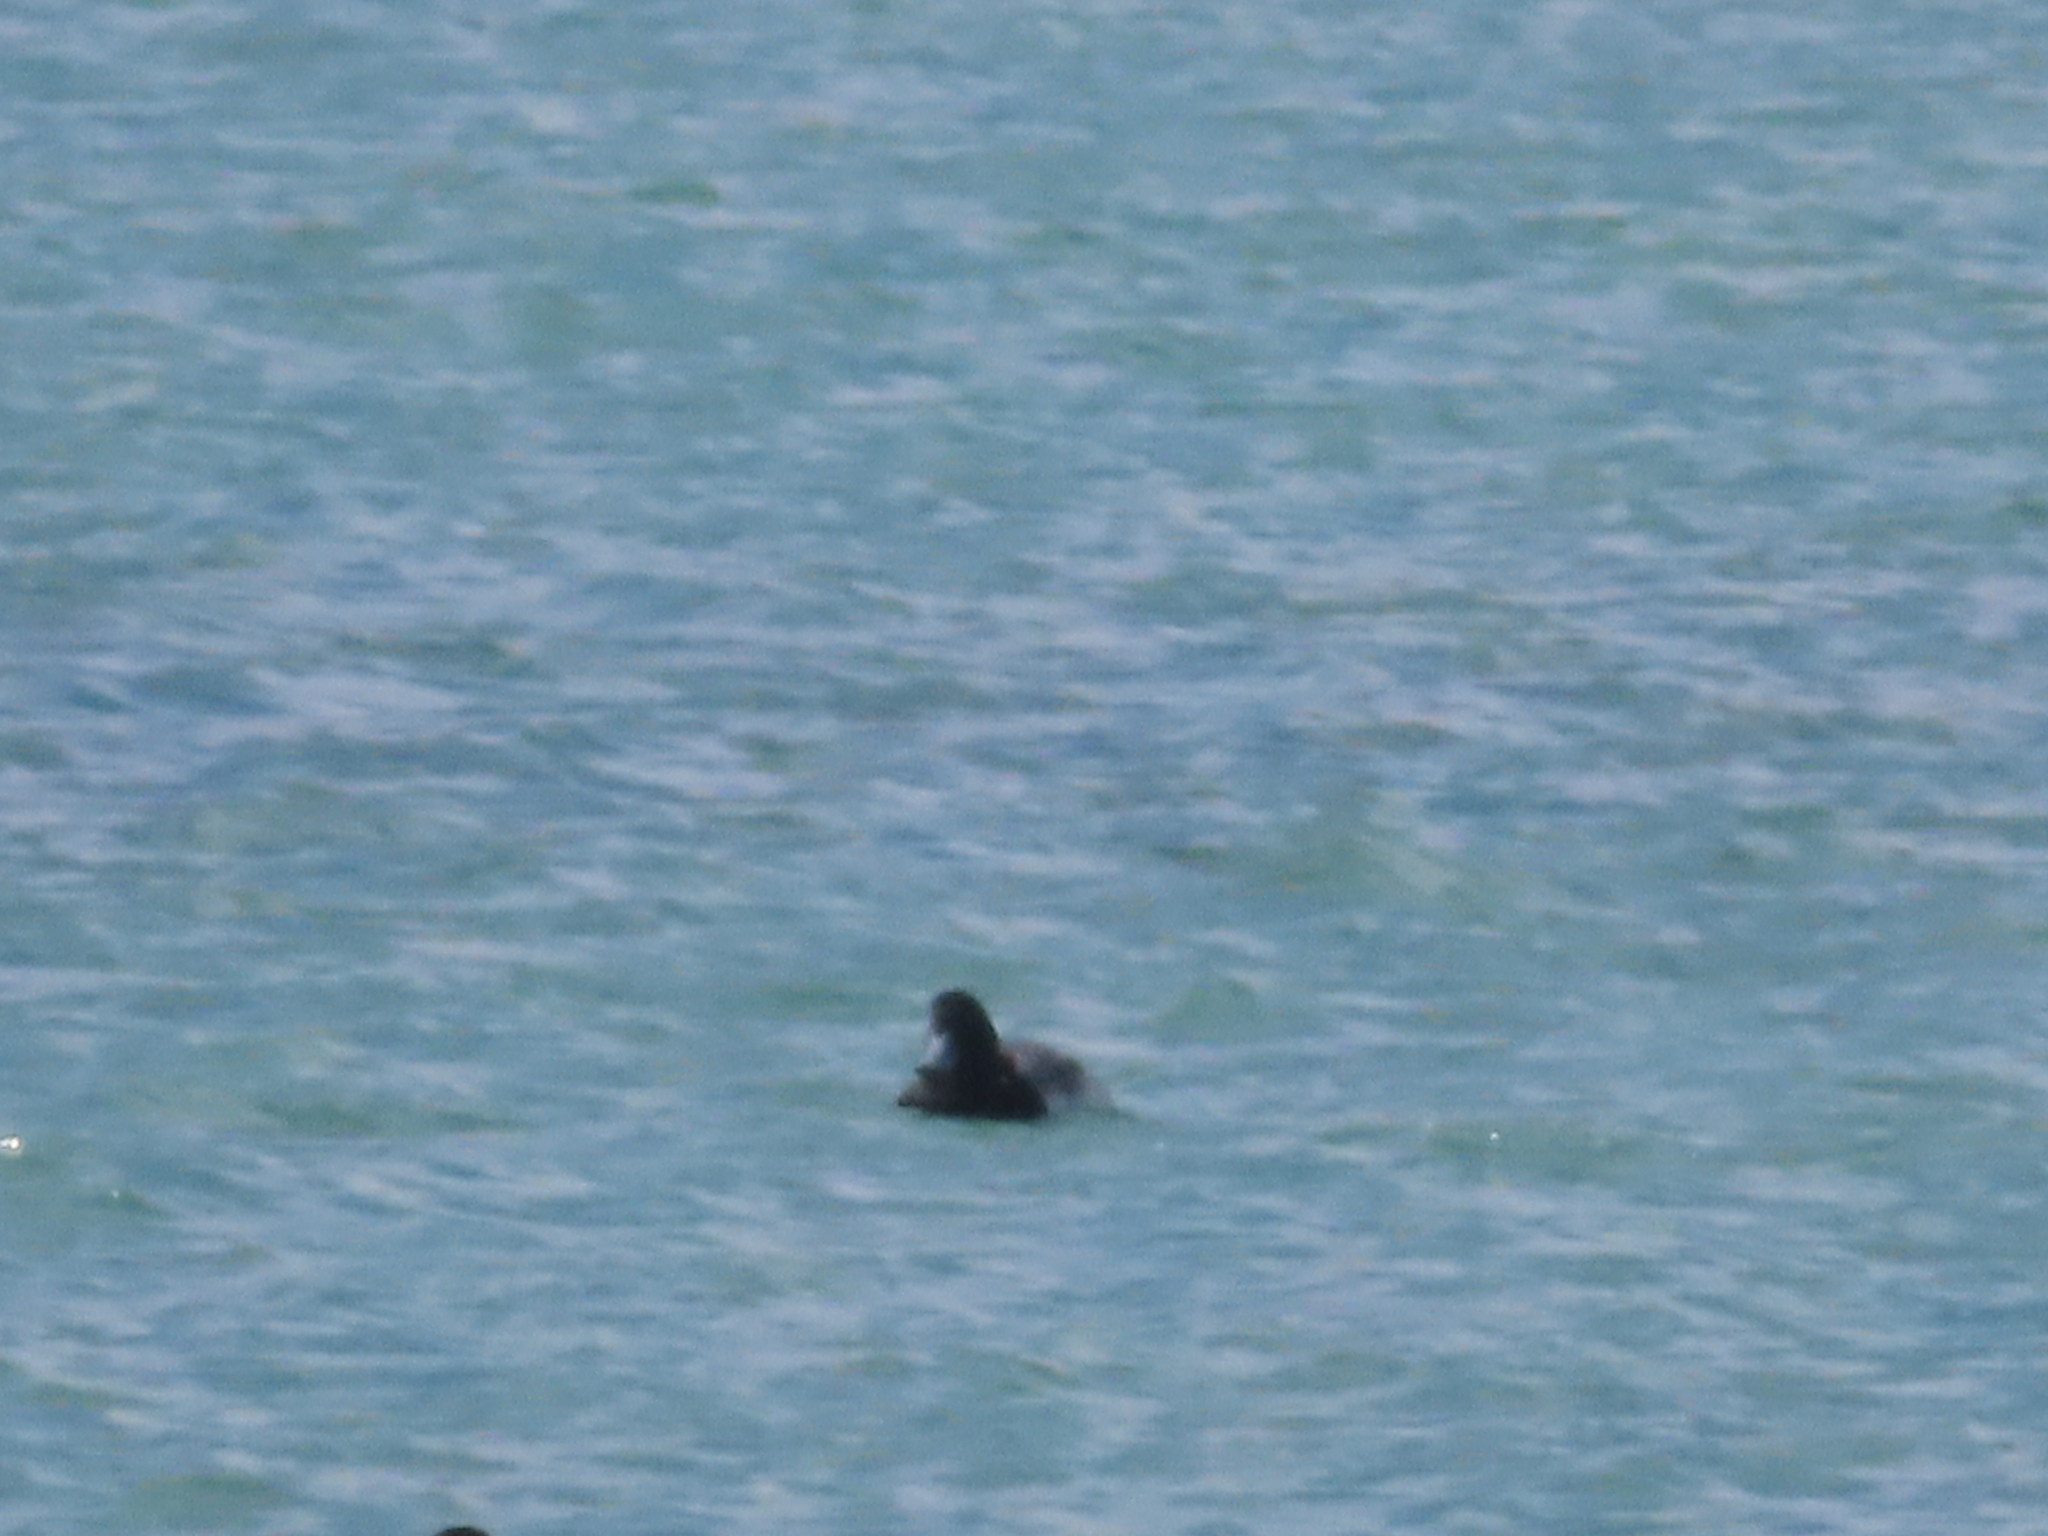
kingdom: Animalia
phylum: Chordata
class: Aves
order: Anseriformes
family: Anatidae
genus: Aythya
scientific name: Aythya marila
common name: Greater scaup
